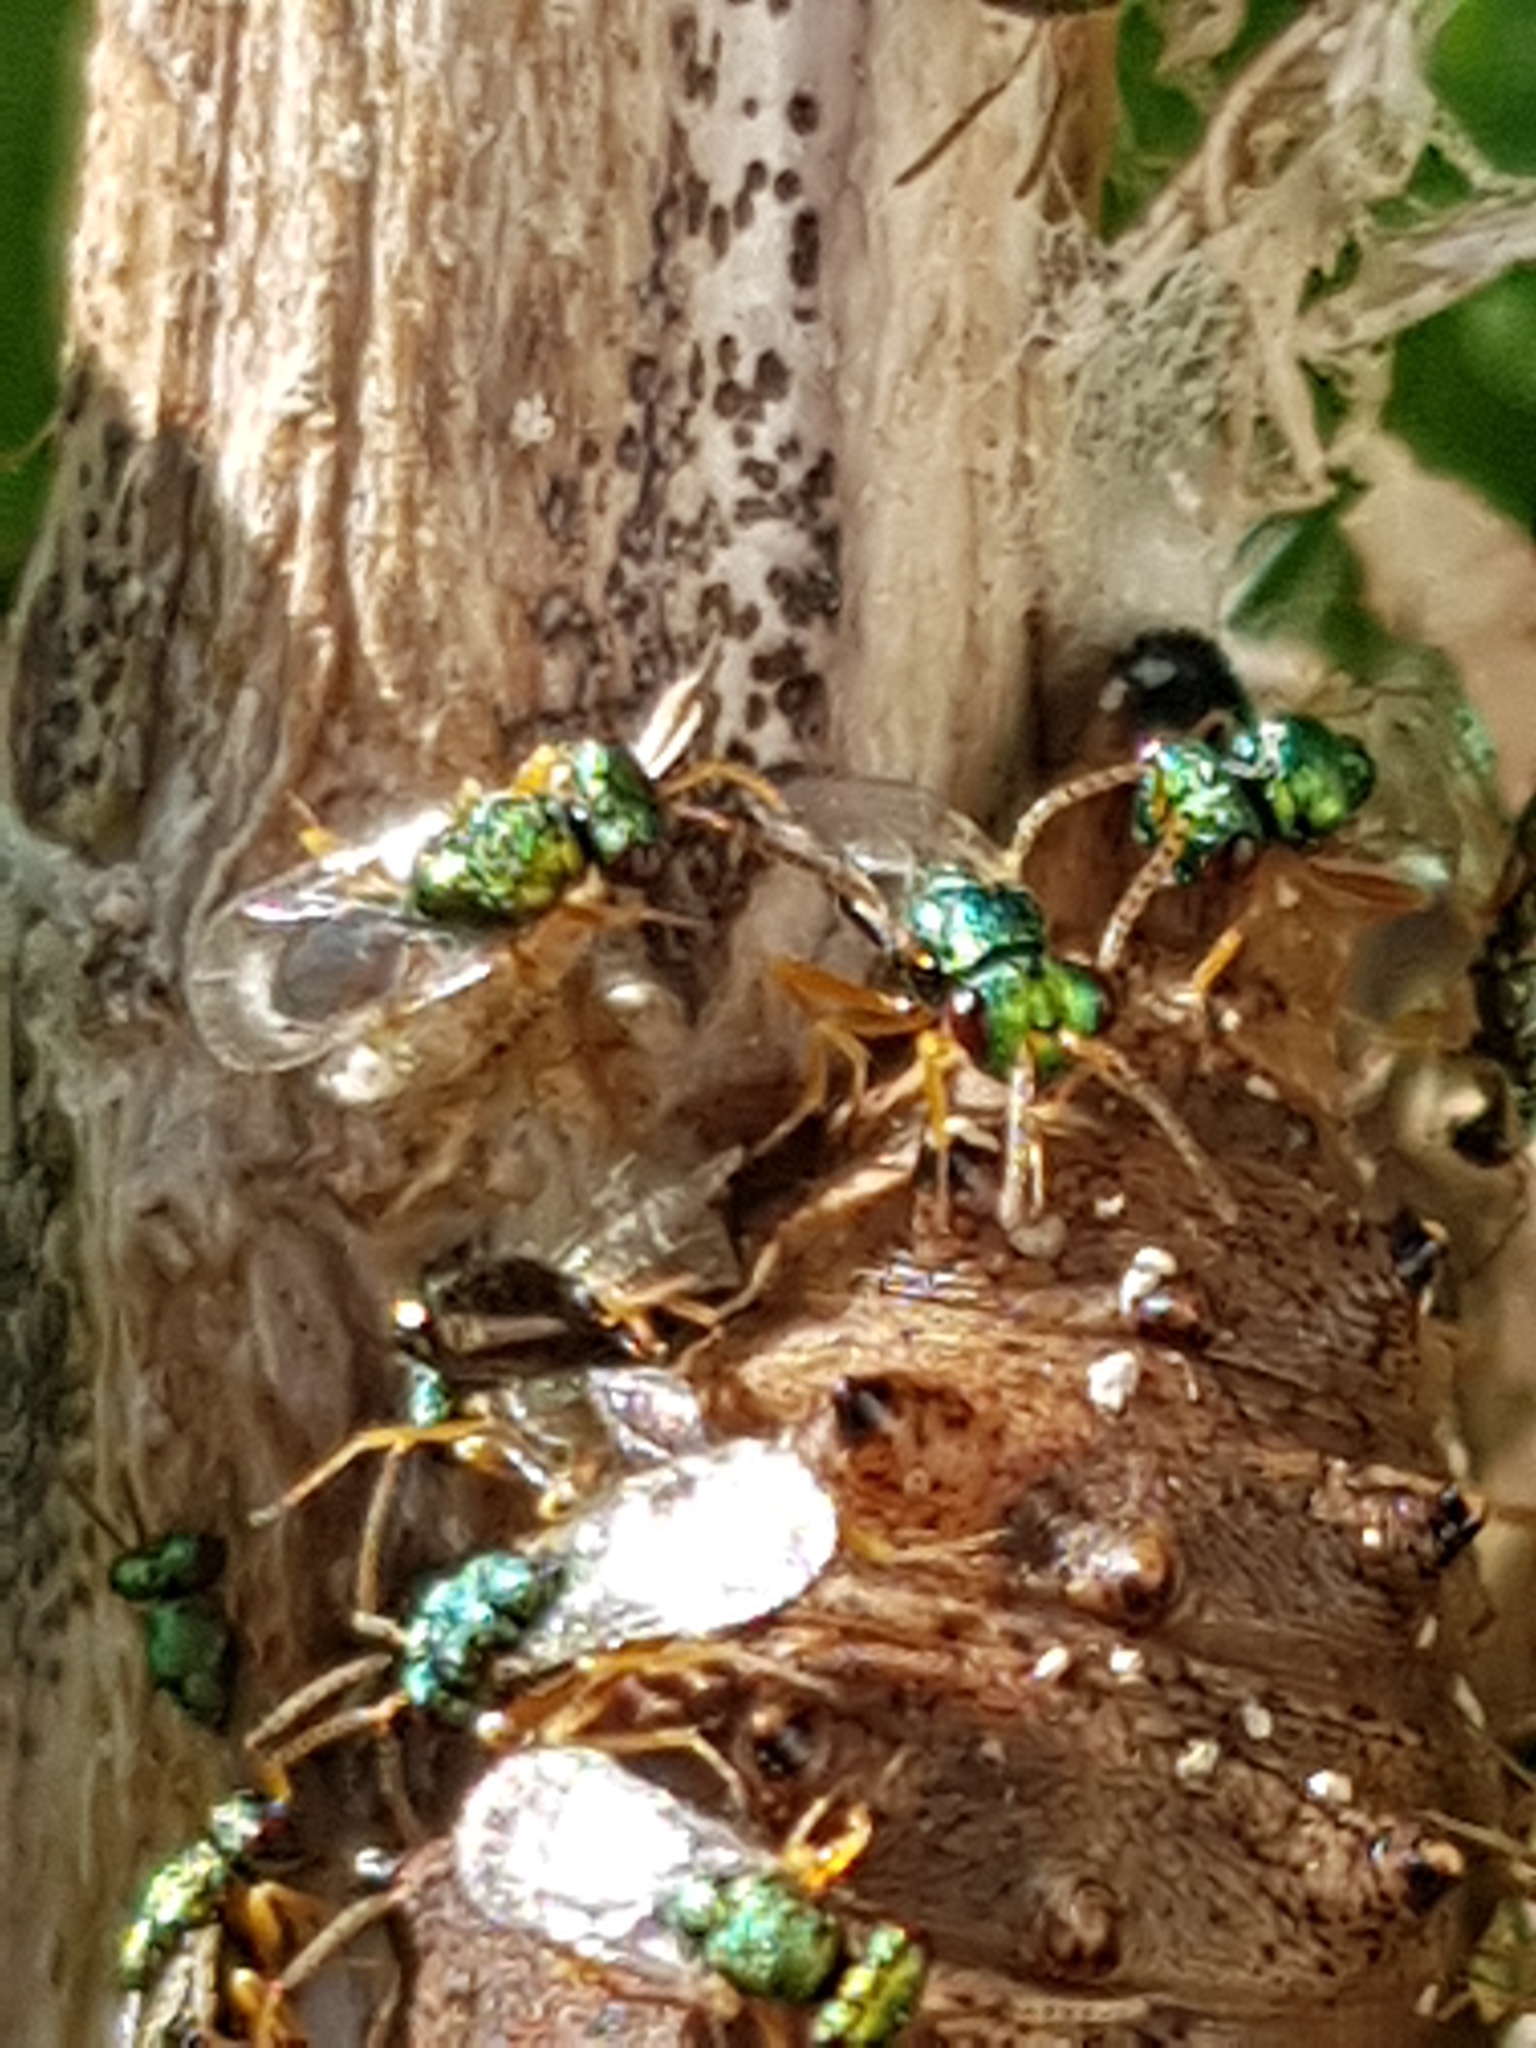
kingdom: Animalia
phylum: Arthropoda
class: Insecta
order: Hymenoptera
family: Pteromalidae
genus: Pteromalus
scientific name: Pteromalus puparum
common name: Parasitoid wasp
